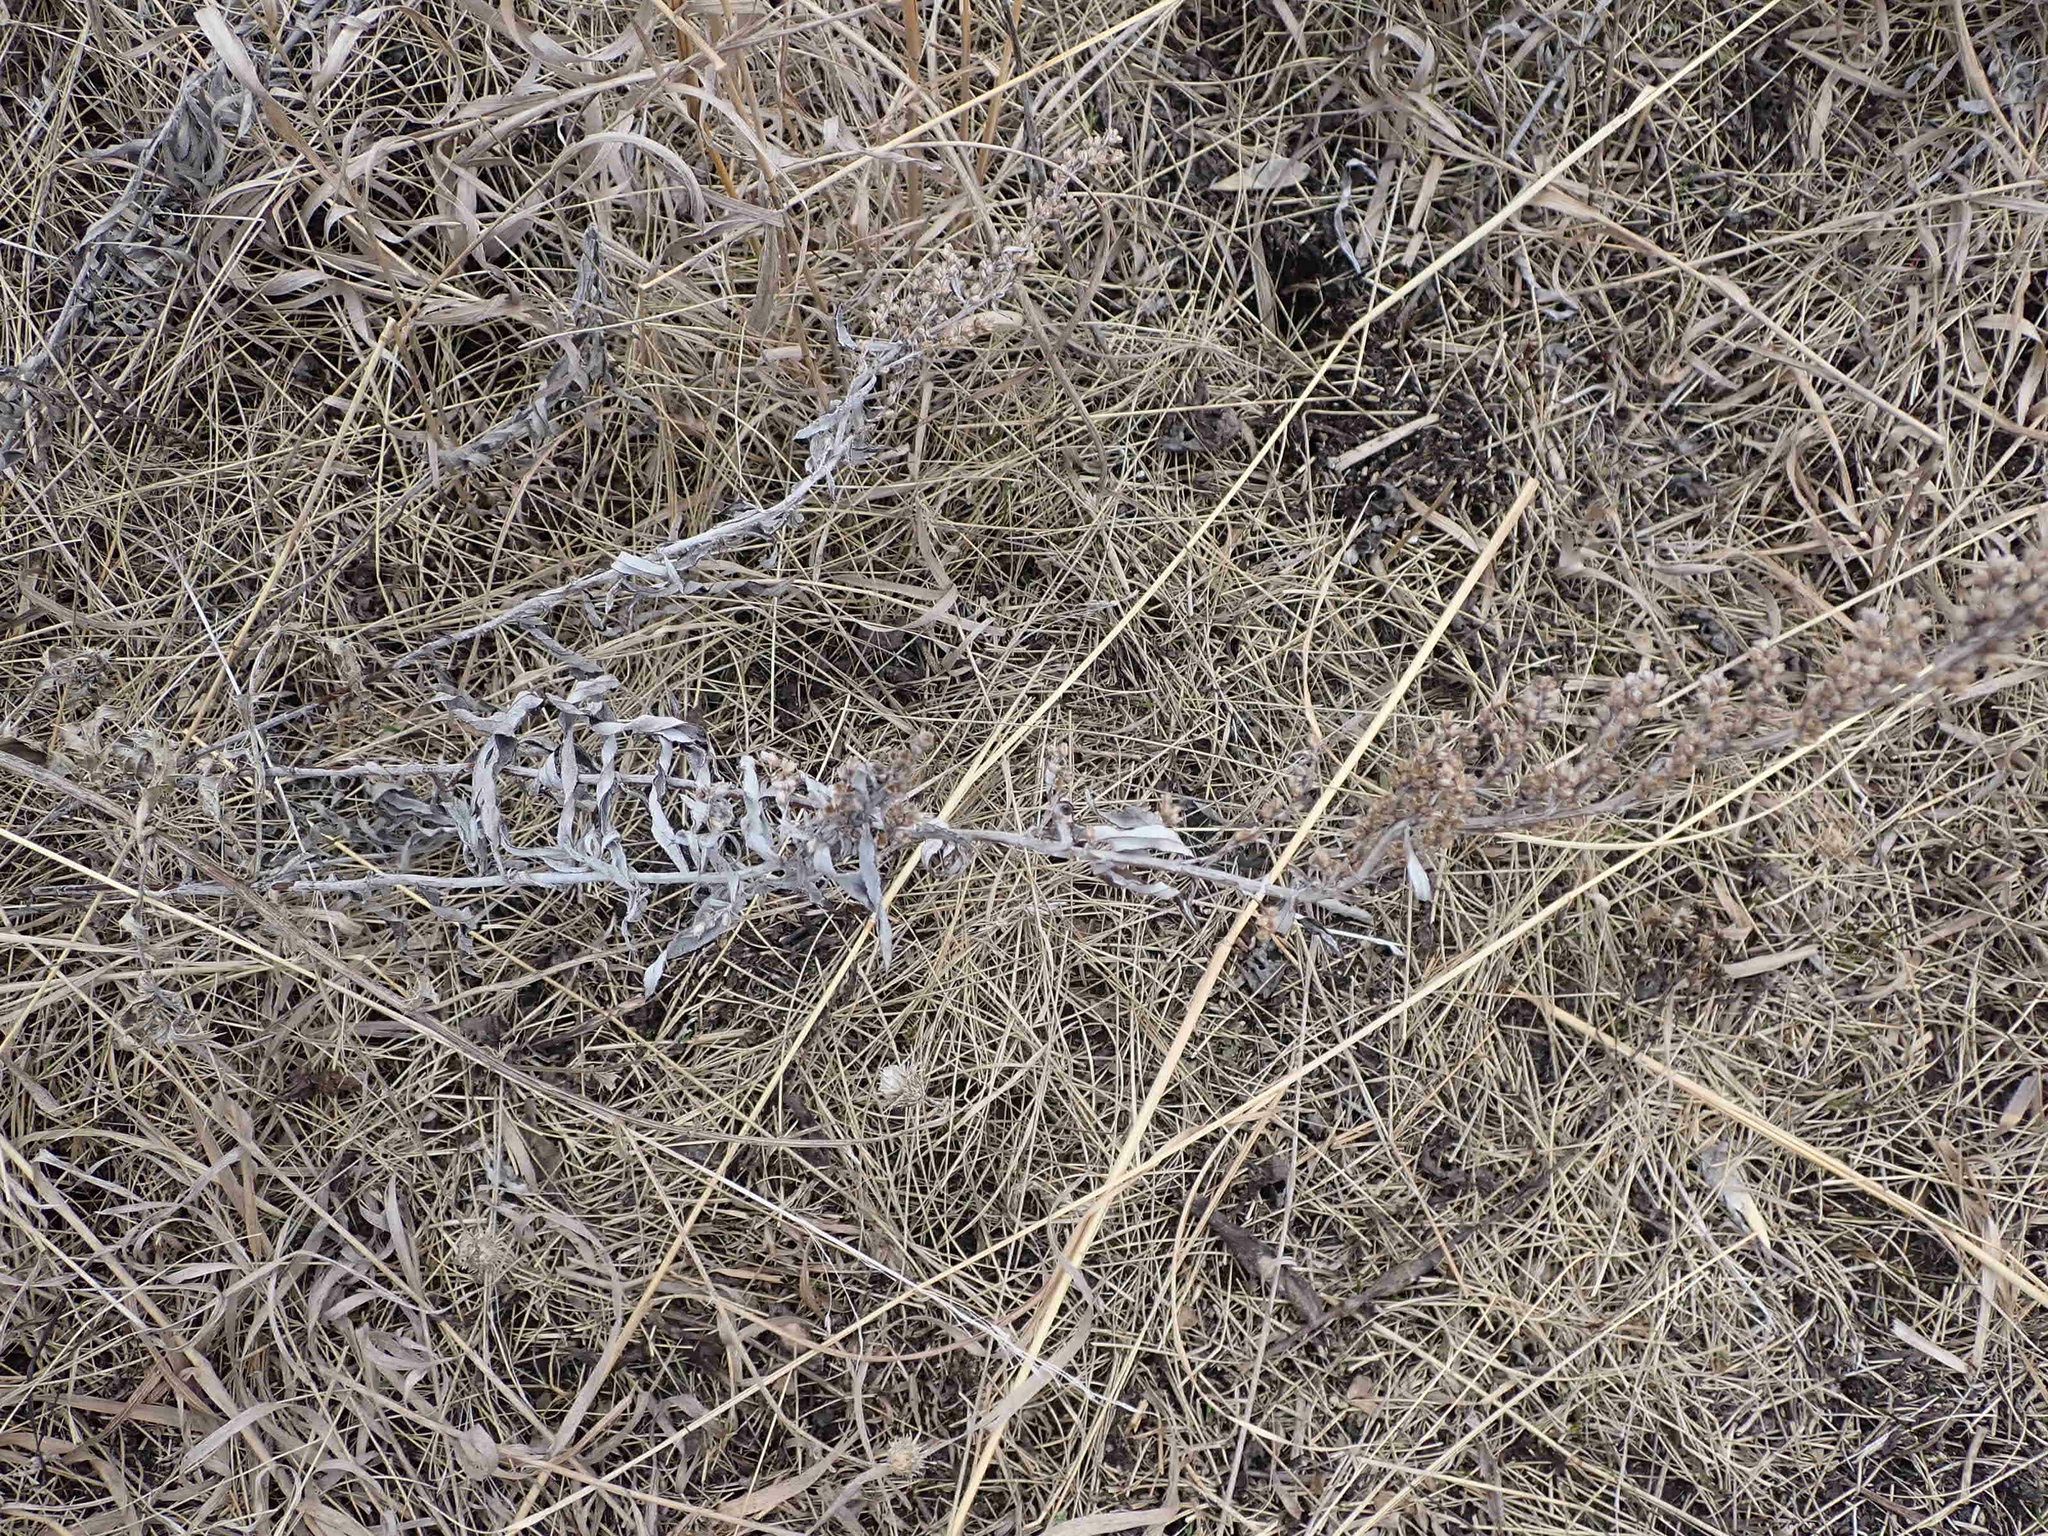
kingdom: Plantae
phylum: Tracheophyta
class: Magnoliopsida
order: Asterales
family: Asteraceae
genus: Artemisia
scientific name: Artemisia ludoviciana
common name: Western mugwort
